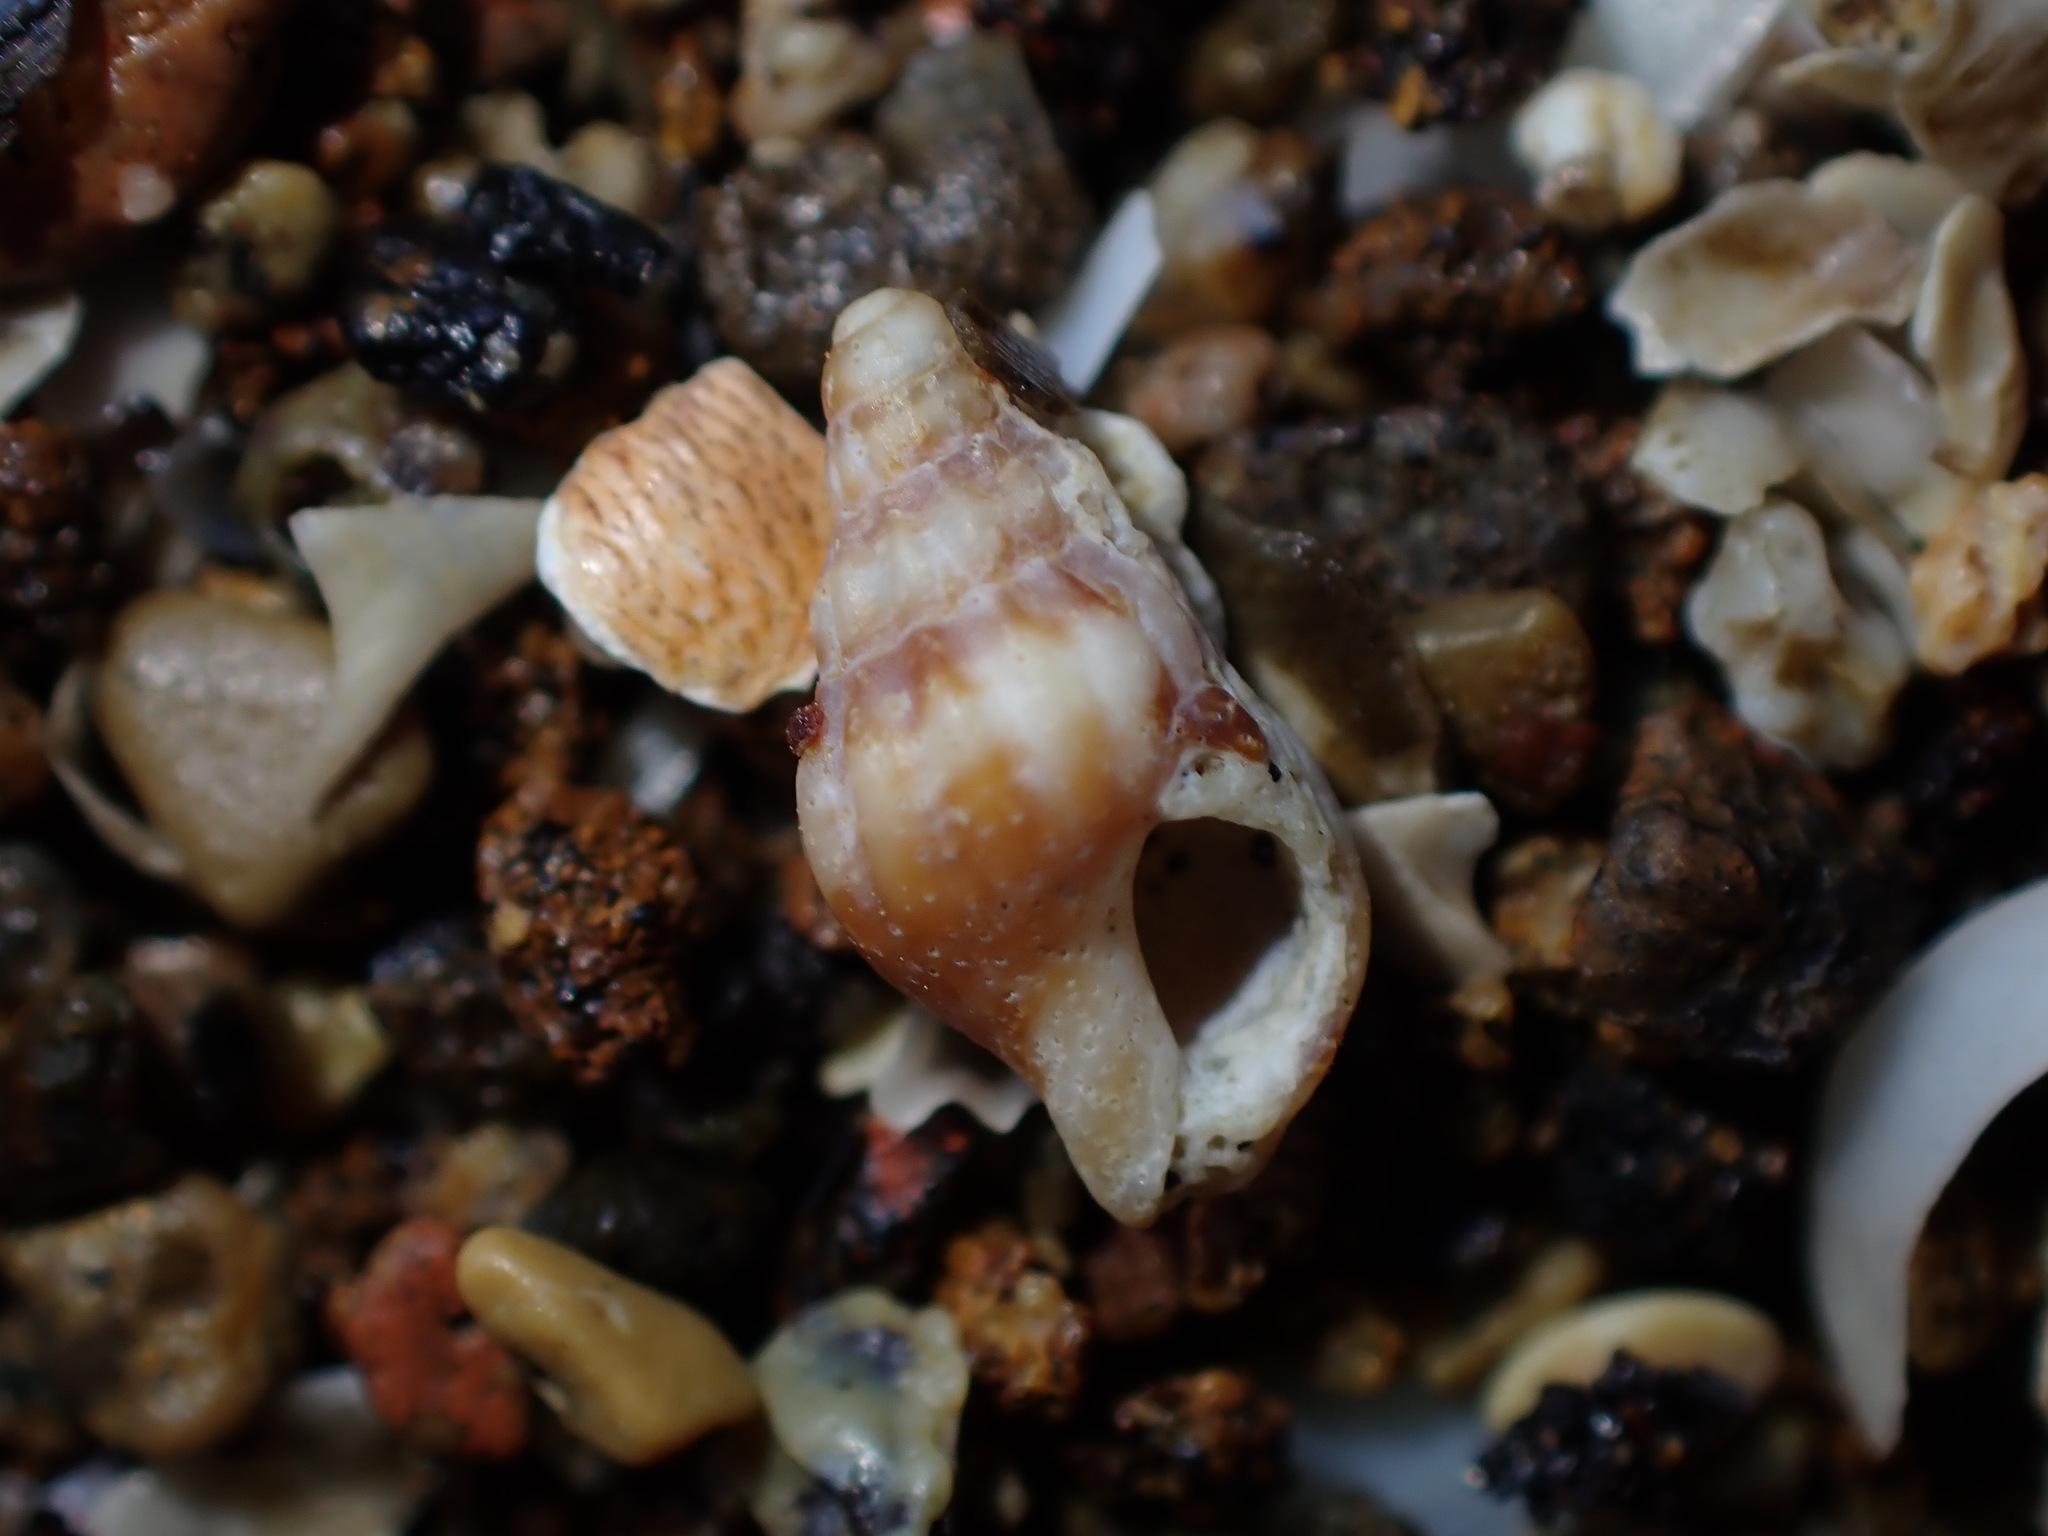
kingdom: Animalia
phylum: Mollusca
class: Gastropoda
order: Neogastropoda
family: Cominellidae
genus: Cominella
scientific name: Cominella accuminata
